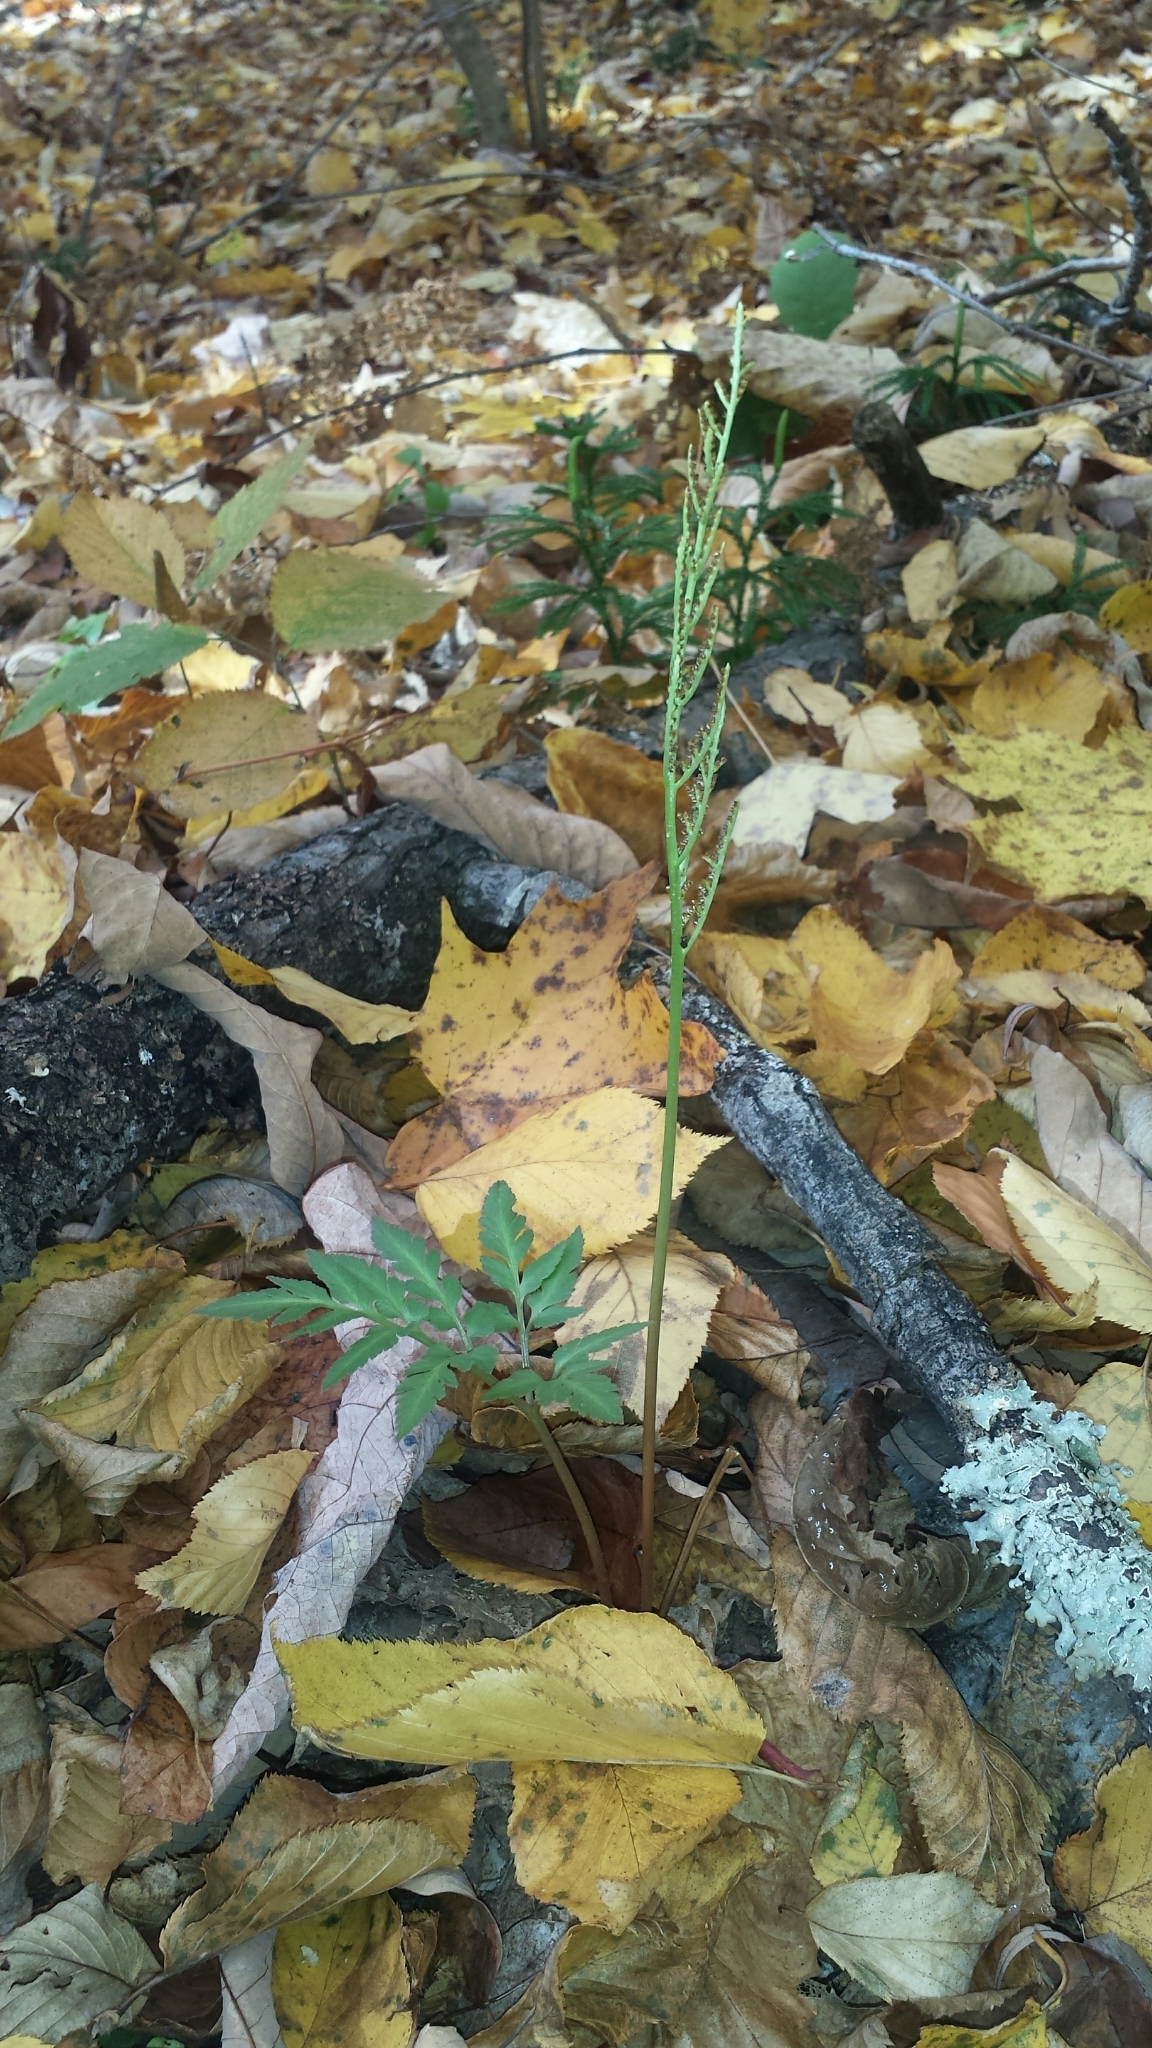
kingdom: Plantae
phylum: Tracheophyta
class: Polypodiopsida
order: Ophioglossales
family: Ophioglossaceae
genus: Sceptridium
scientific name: Sceptridium dissectum
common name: Cut-leaved grapefern
